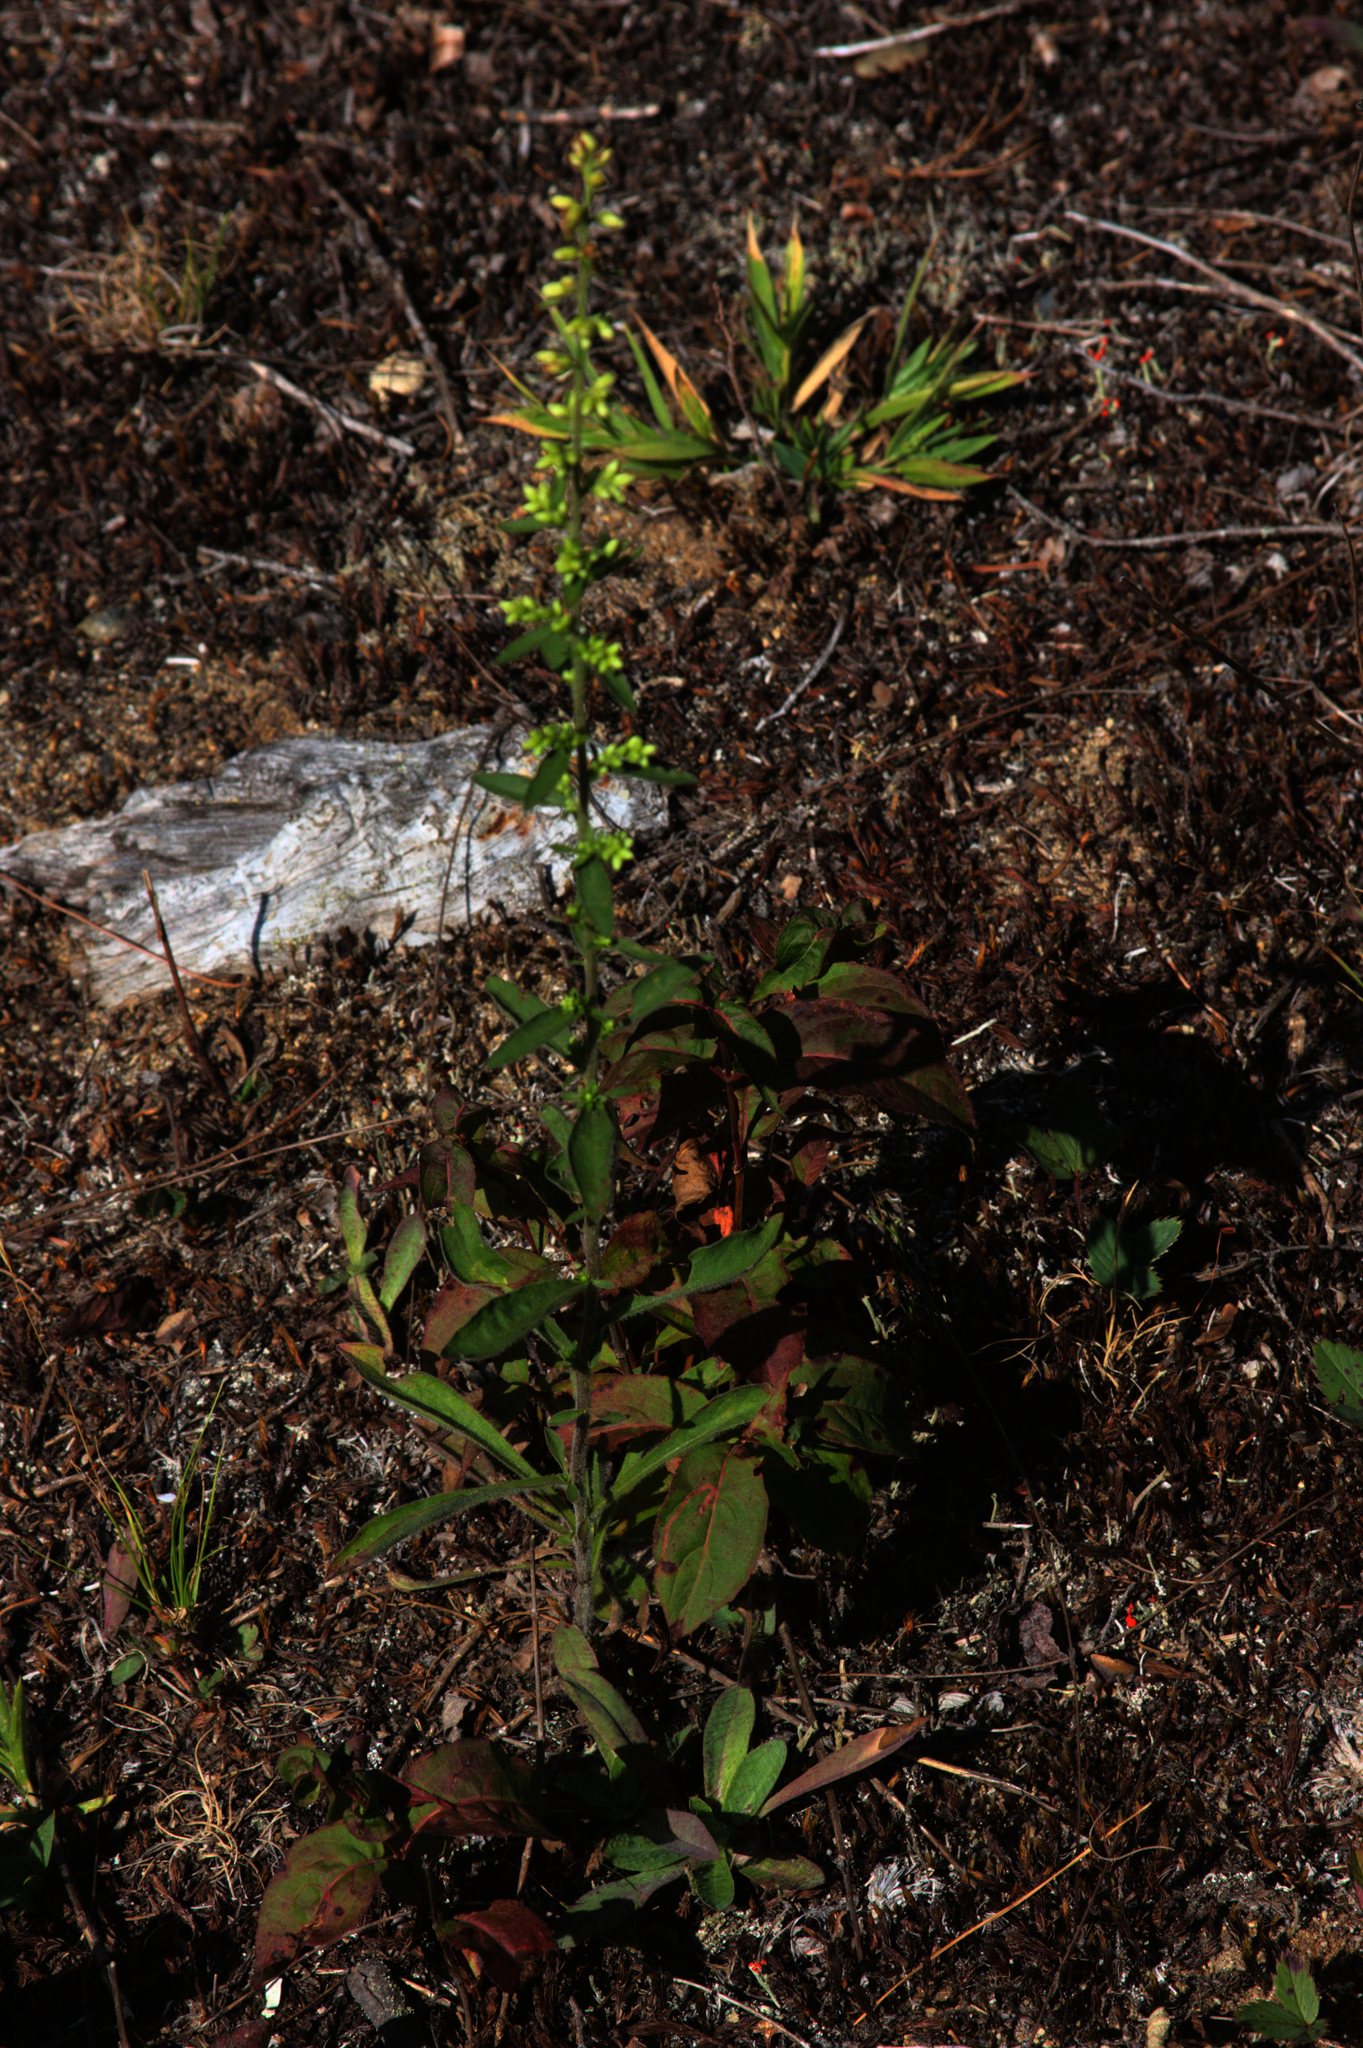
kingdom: Plantae
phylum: Tracheophyta
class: Magnoliopsida
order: Asterales
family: Asteraceae
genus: Solidago
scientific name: Solidago bicolor
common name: Silverrod
